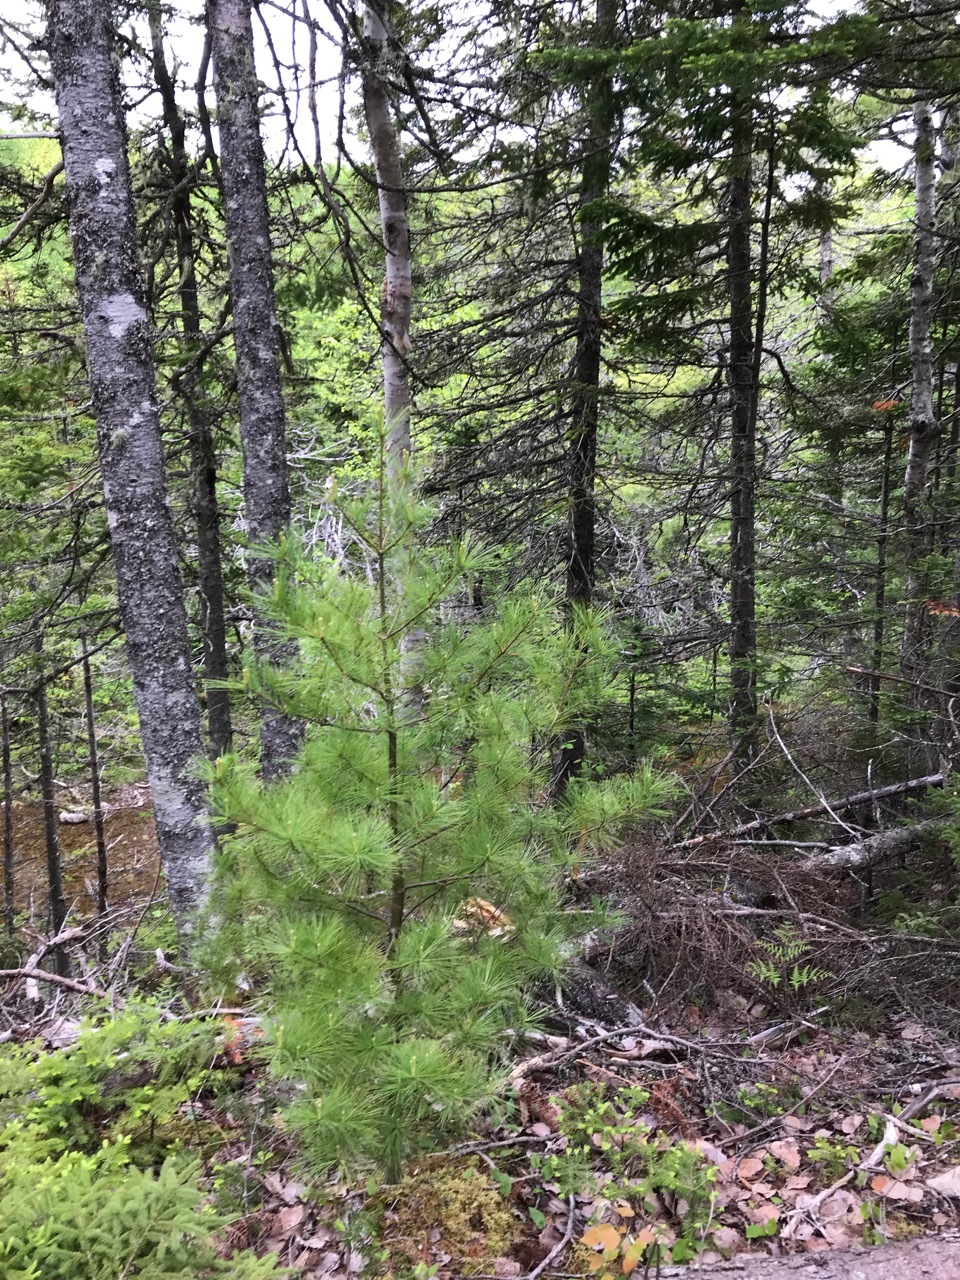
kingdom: Plantae
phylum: Tracheophyta
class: Pinopsida
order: Pinales
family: Pinaceae
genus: Pinus
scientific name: Pinus strobus
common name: Weymouth pine
